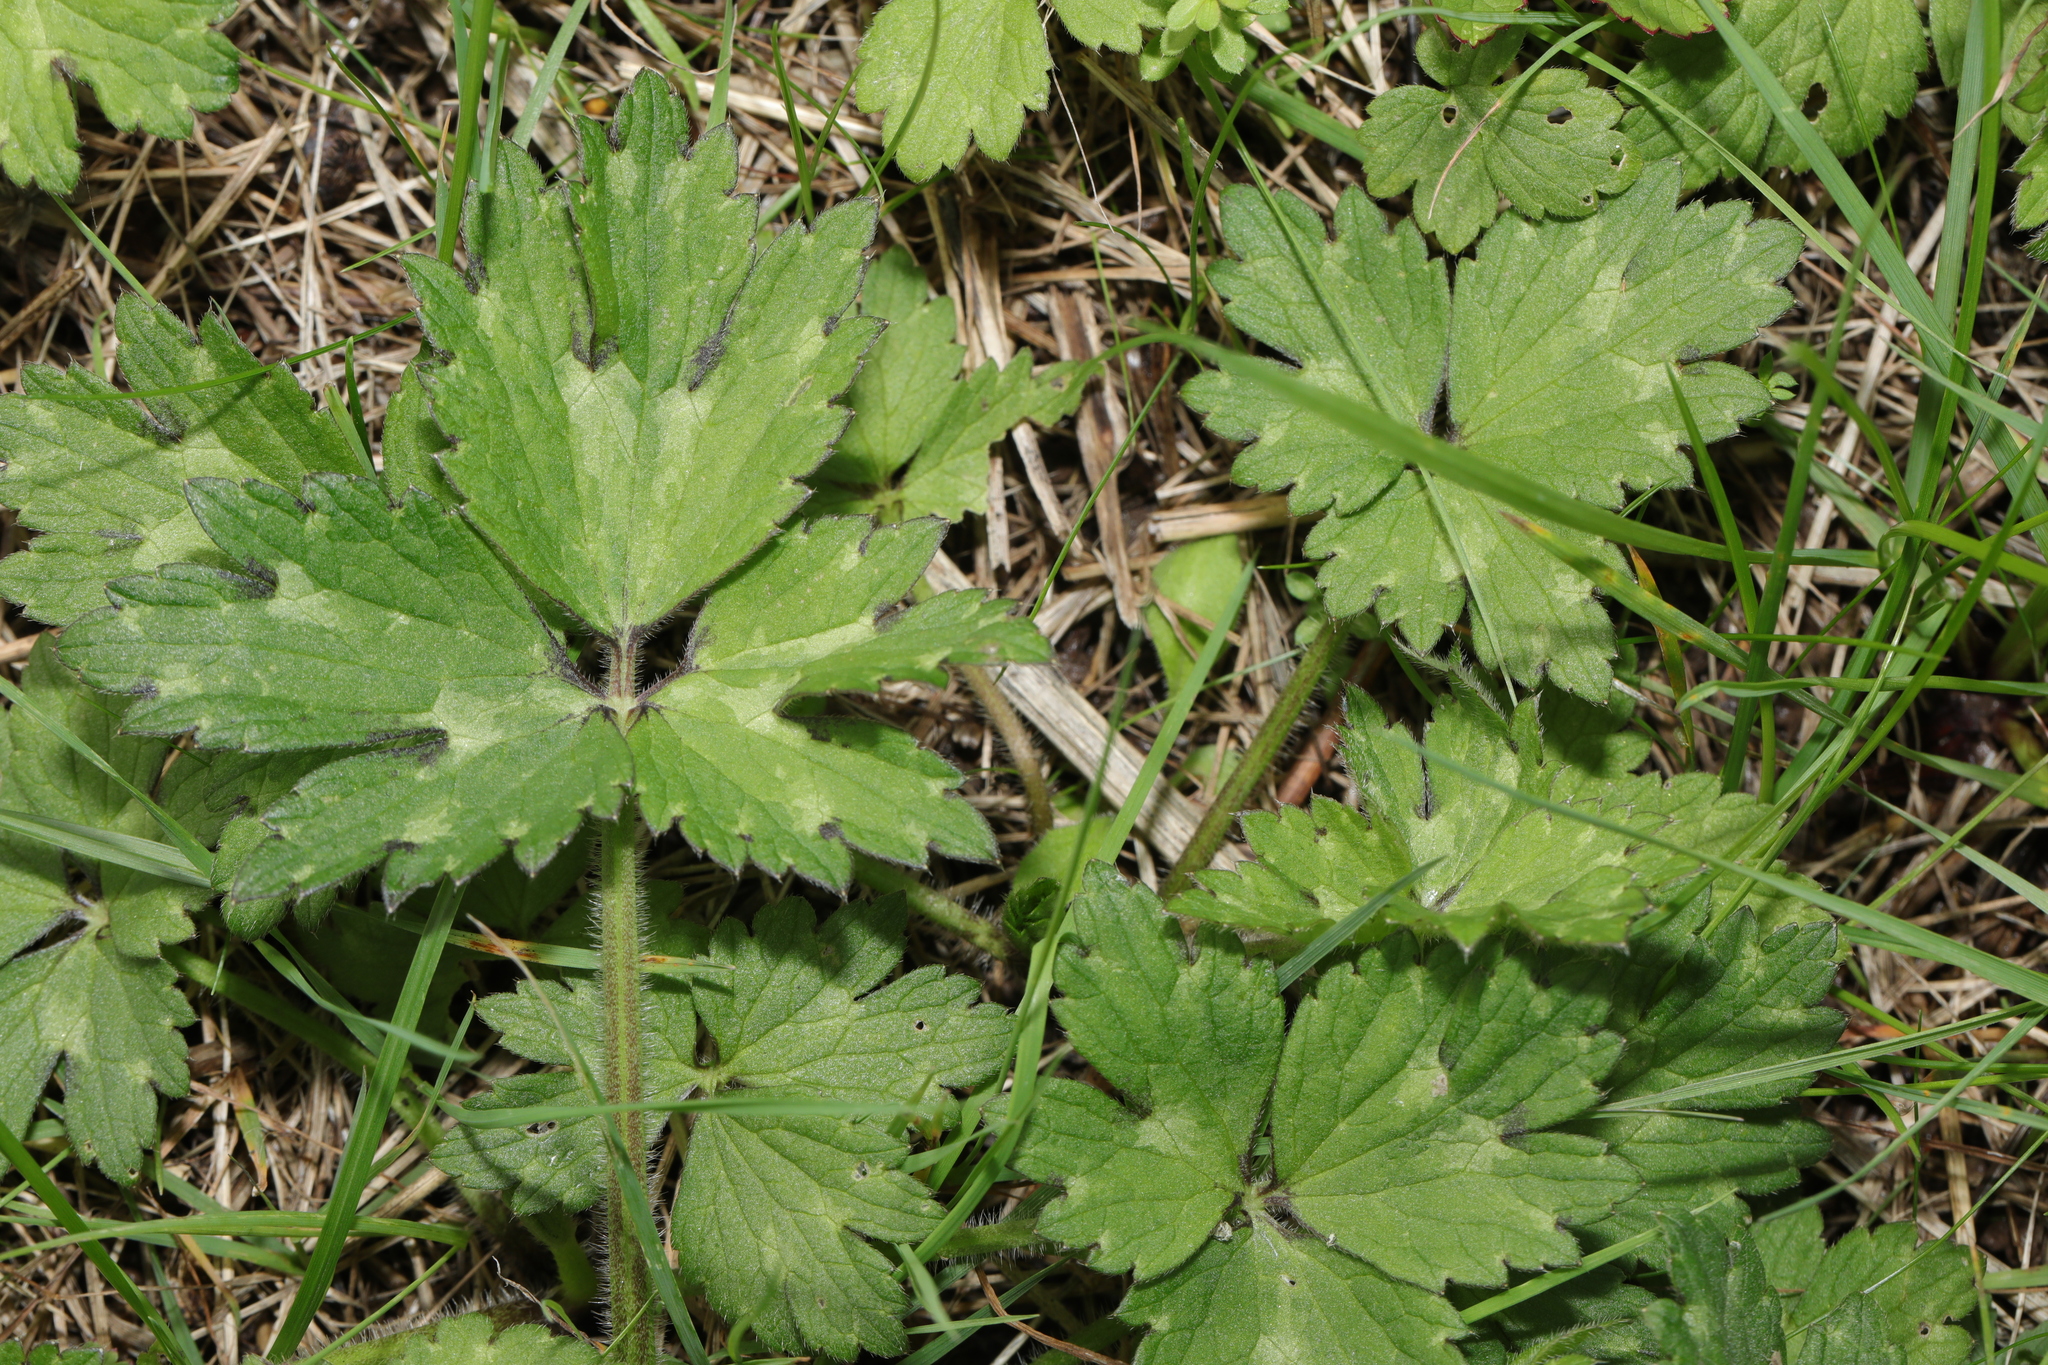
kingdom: Plantae
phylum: Tracheophyta
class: Magnoliopsida
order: Ranunculales
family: Ranunculaceae
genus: Ranunculus
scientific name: Ranunculus repens
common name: Creeping buttercup
